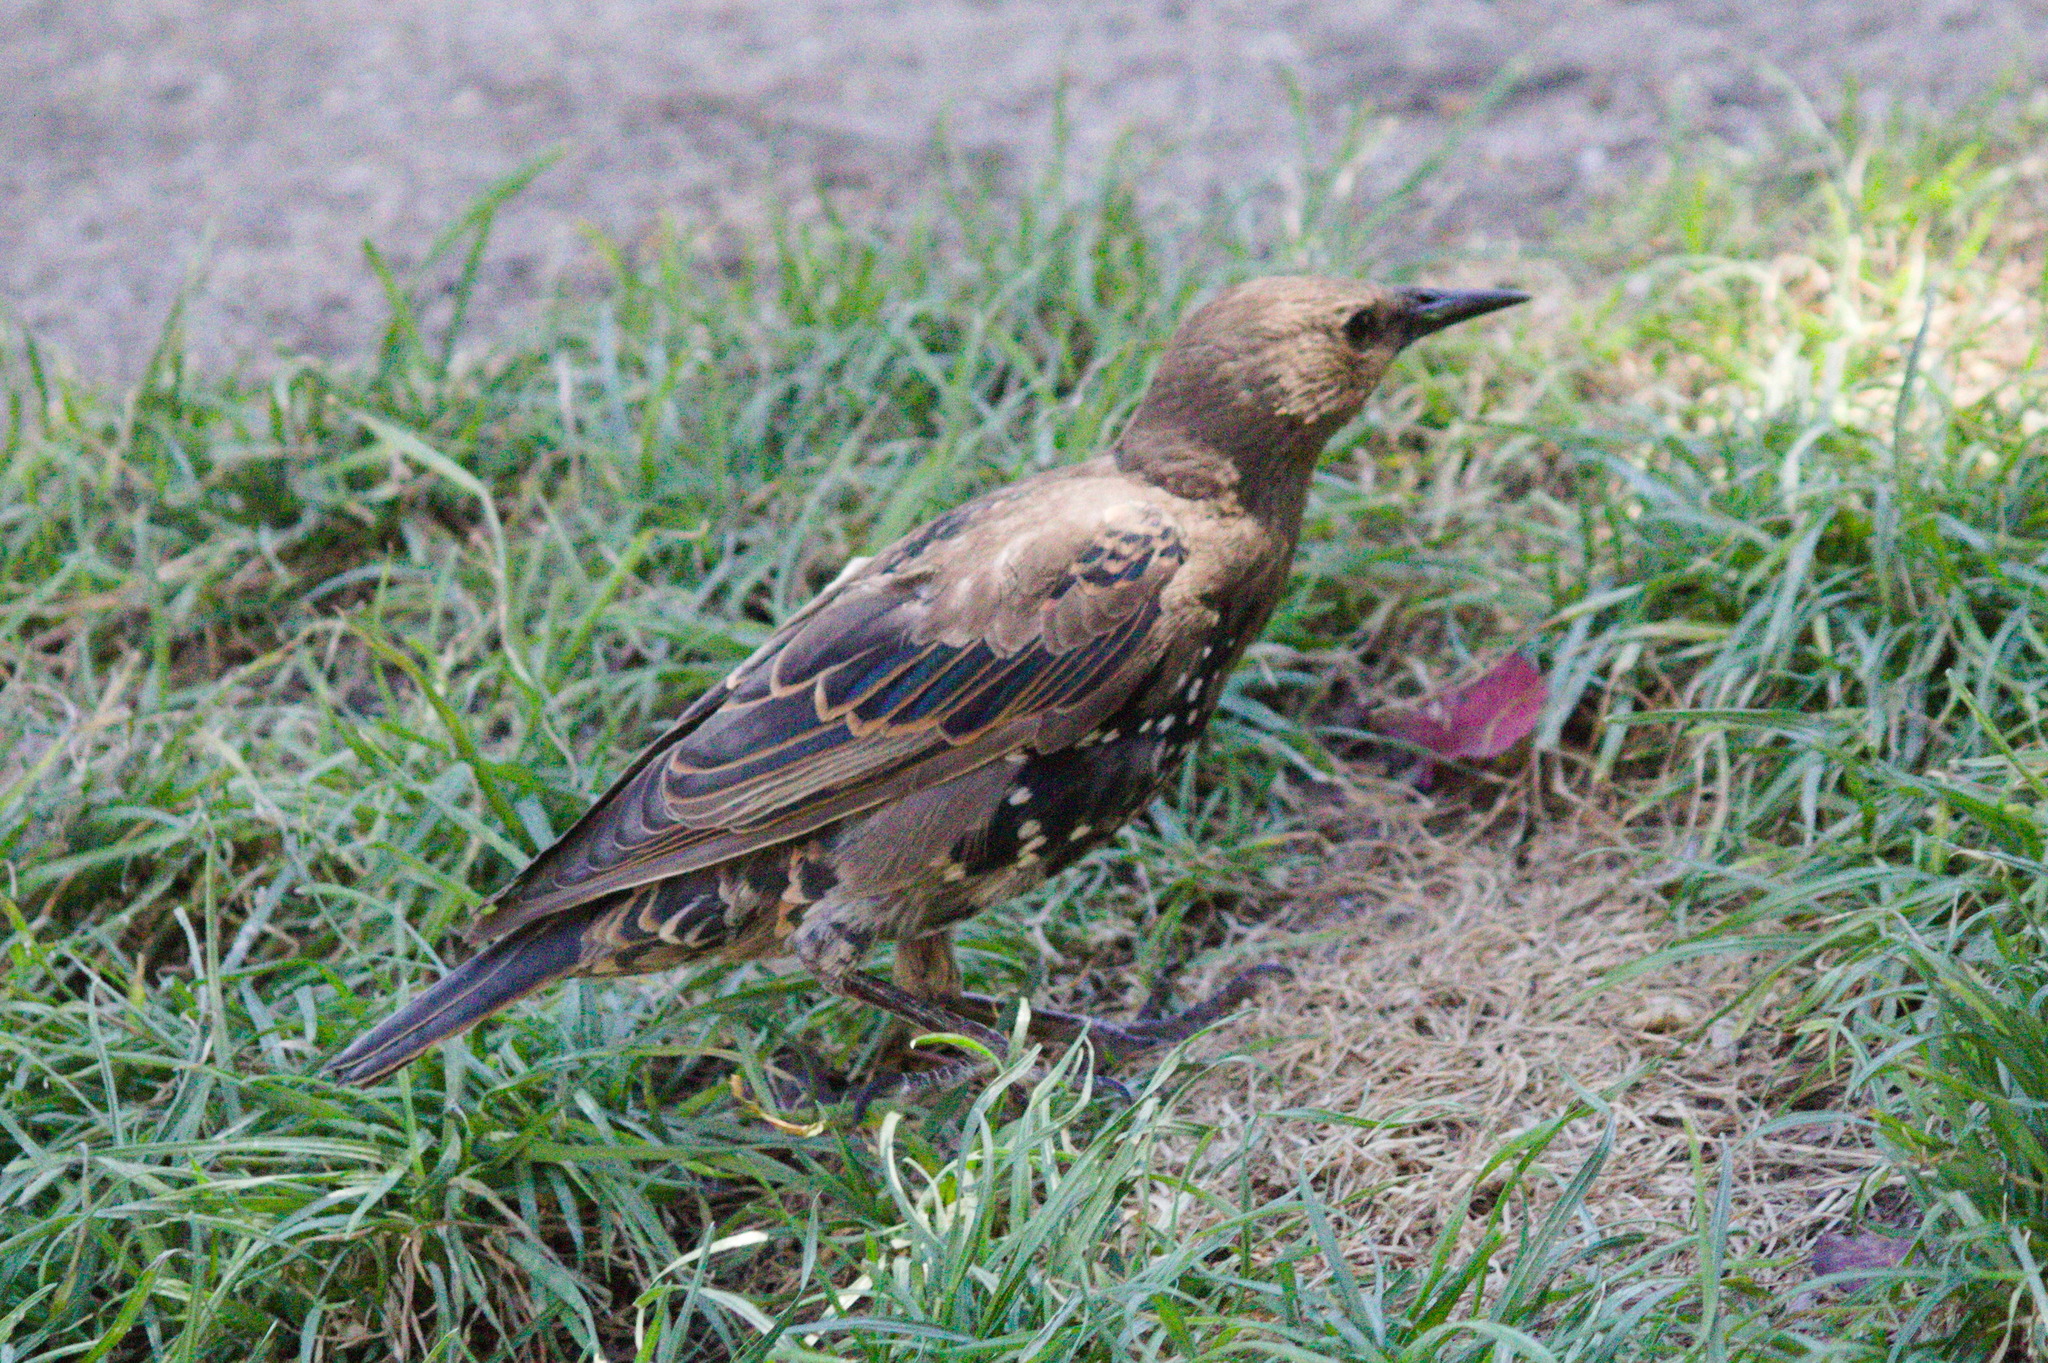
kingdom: Animalia
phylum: Chordata
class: Aves
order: Passeriformes
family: Sturnidae
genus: Sturnus
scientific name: Sturnus vulgaris
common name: Common starling
